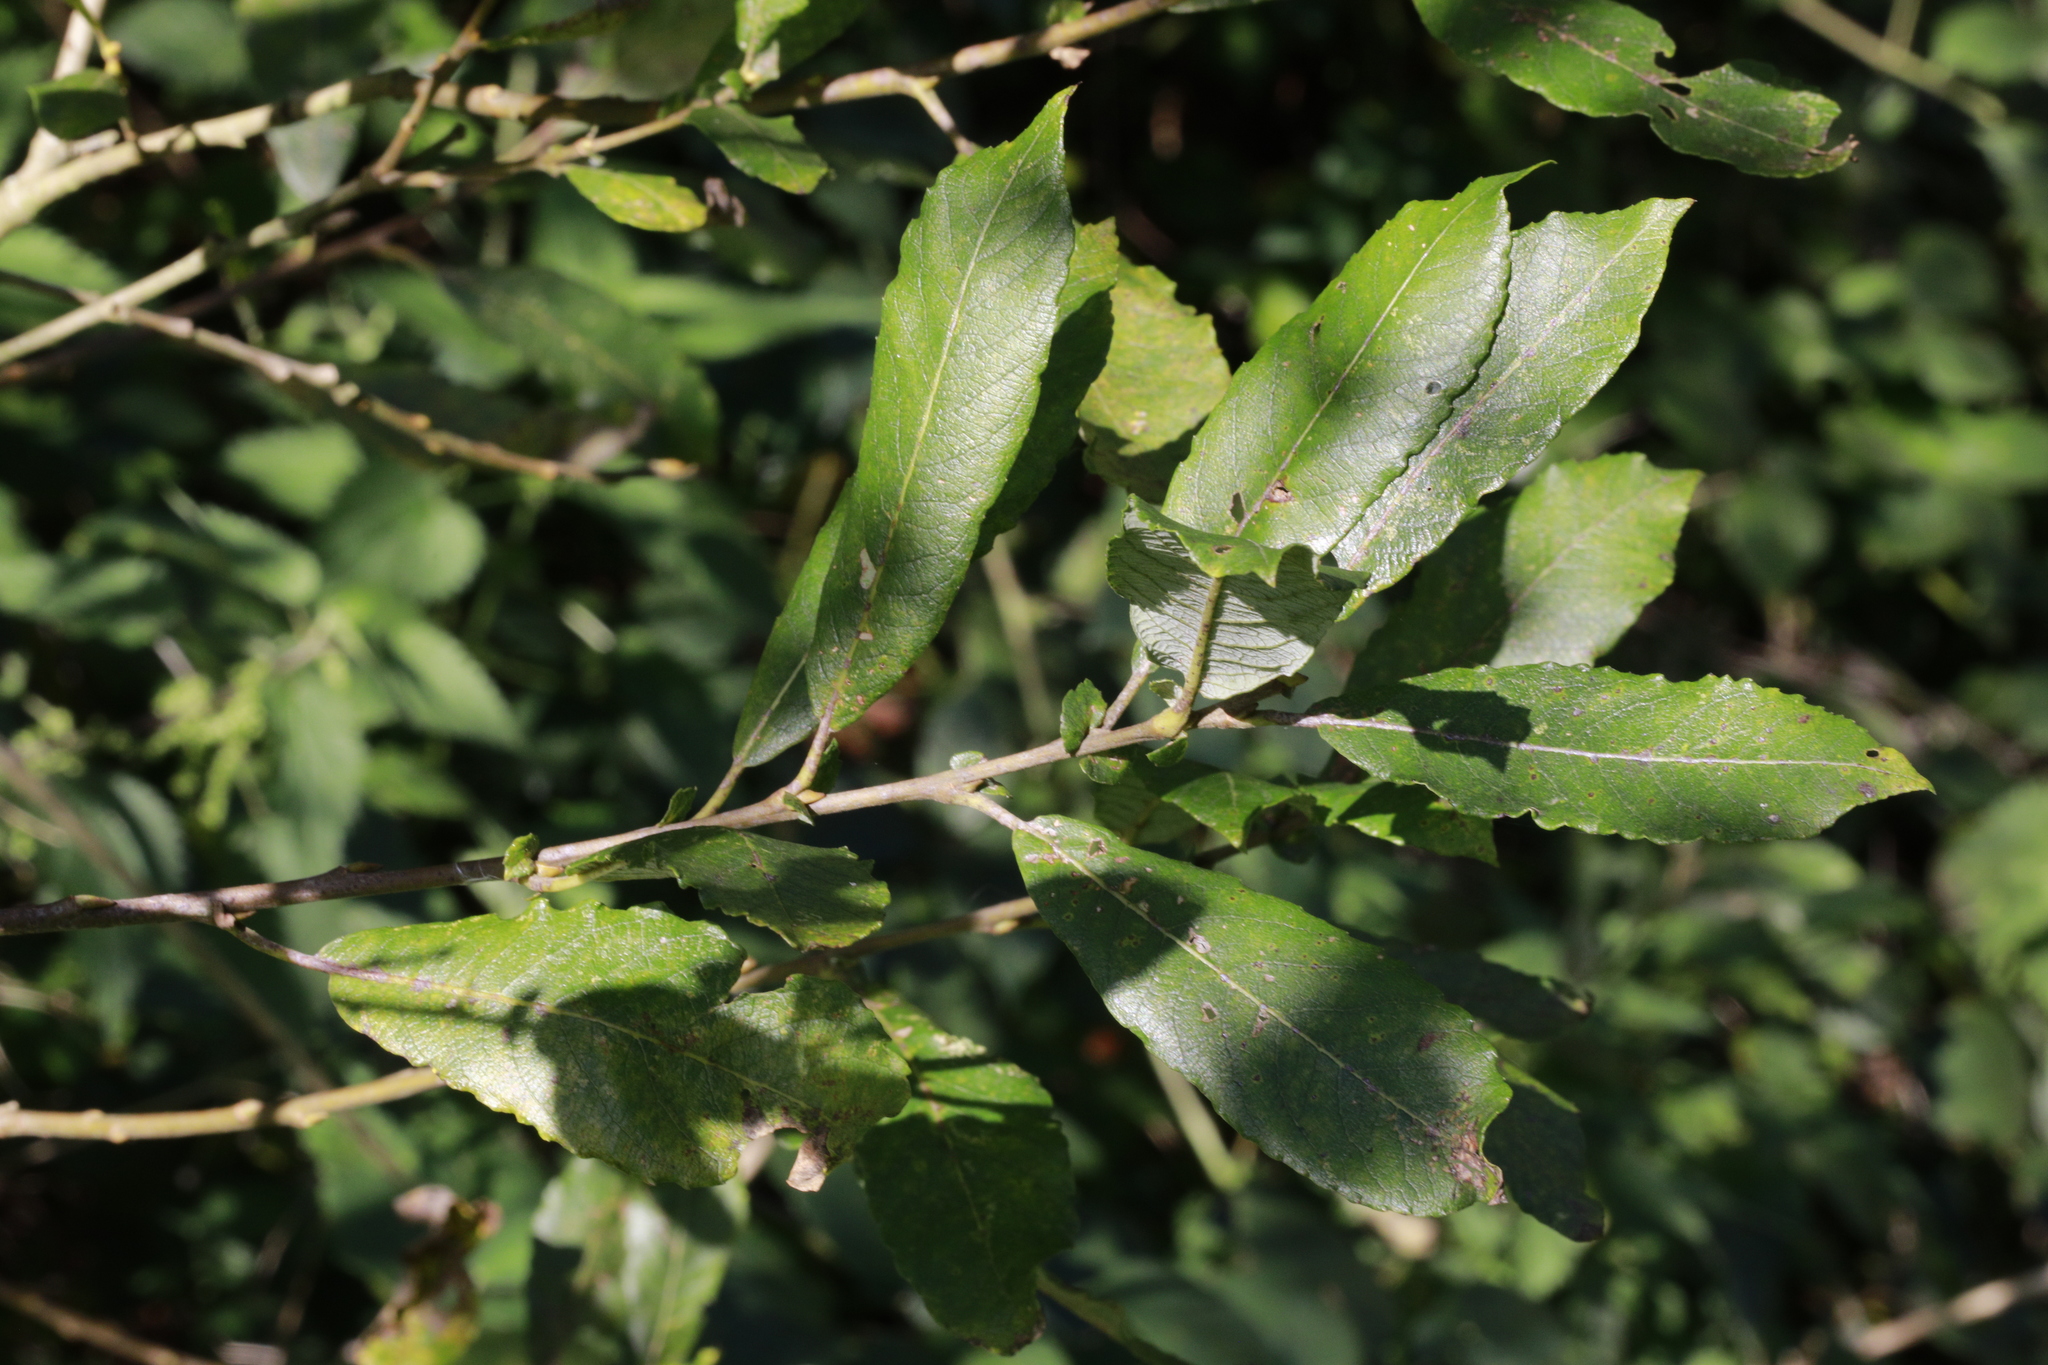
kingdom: Plantae
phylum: Tracheophyta
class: Magnoliopsida
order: Malpighiales
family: Salicaceae
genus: Salix
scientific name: Salix cinerea
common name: Common sallow
